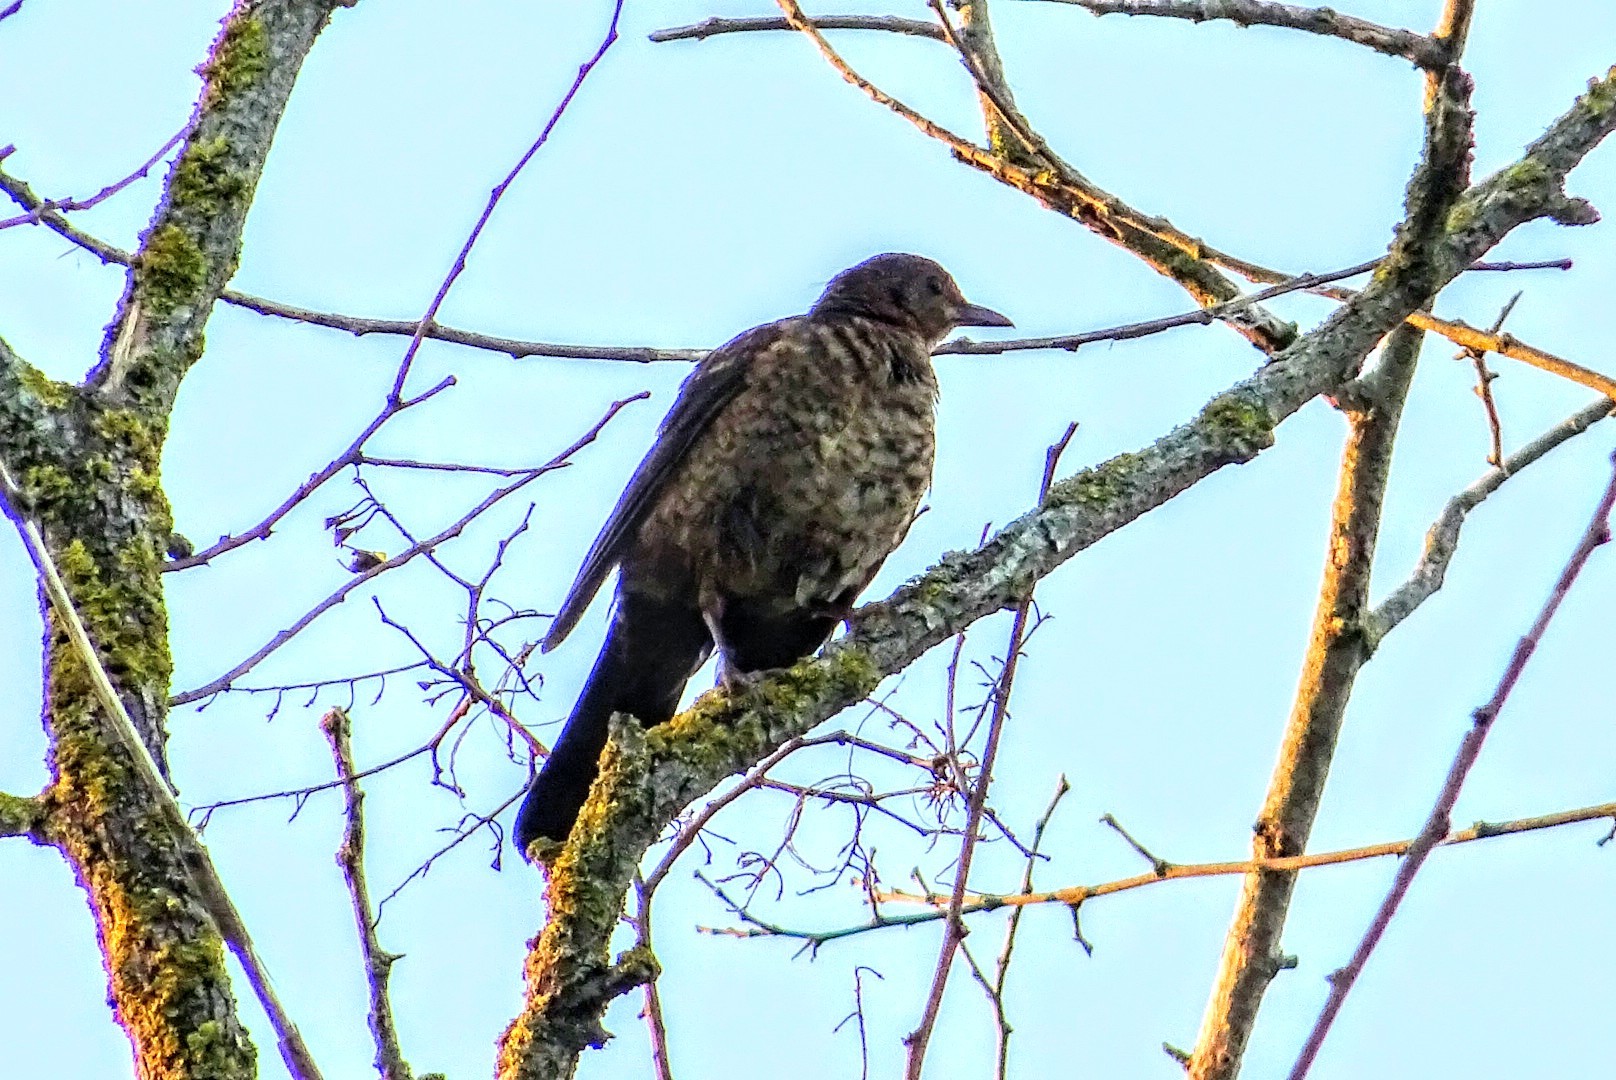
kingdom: Animalia
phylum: Chordata
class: Aves
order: Passeriformes
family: Turdidae
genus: Turdus
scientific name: Turdus merula
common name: Common blackbird
